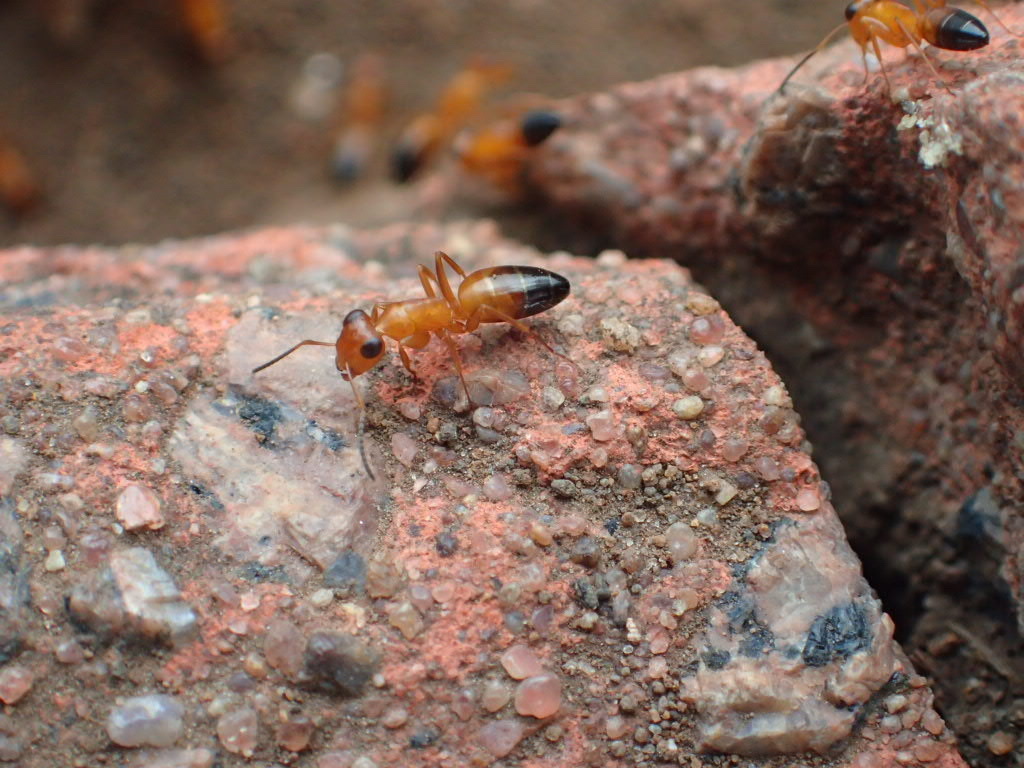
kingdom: Animalia
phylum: Arthropoda
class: Insecta
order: Hymenoptera
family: Formicidae
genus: Opisthopsis
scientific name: Opisthopsis haddoni
